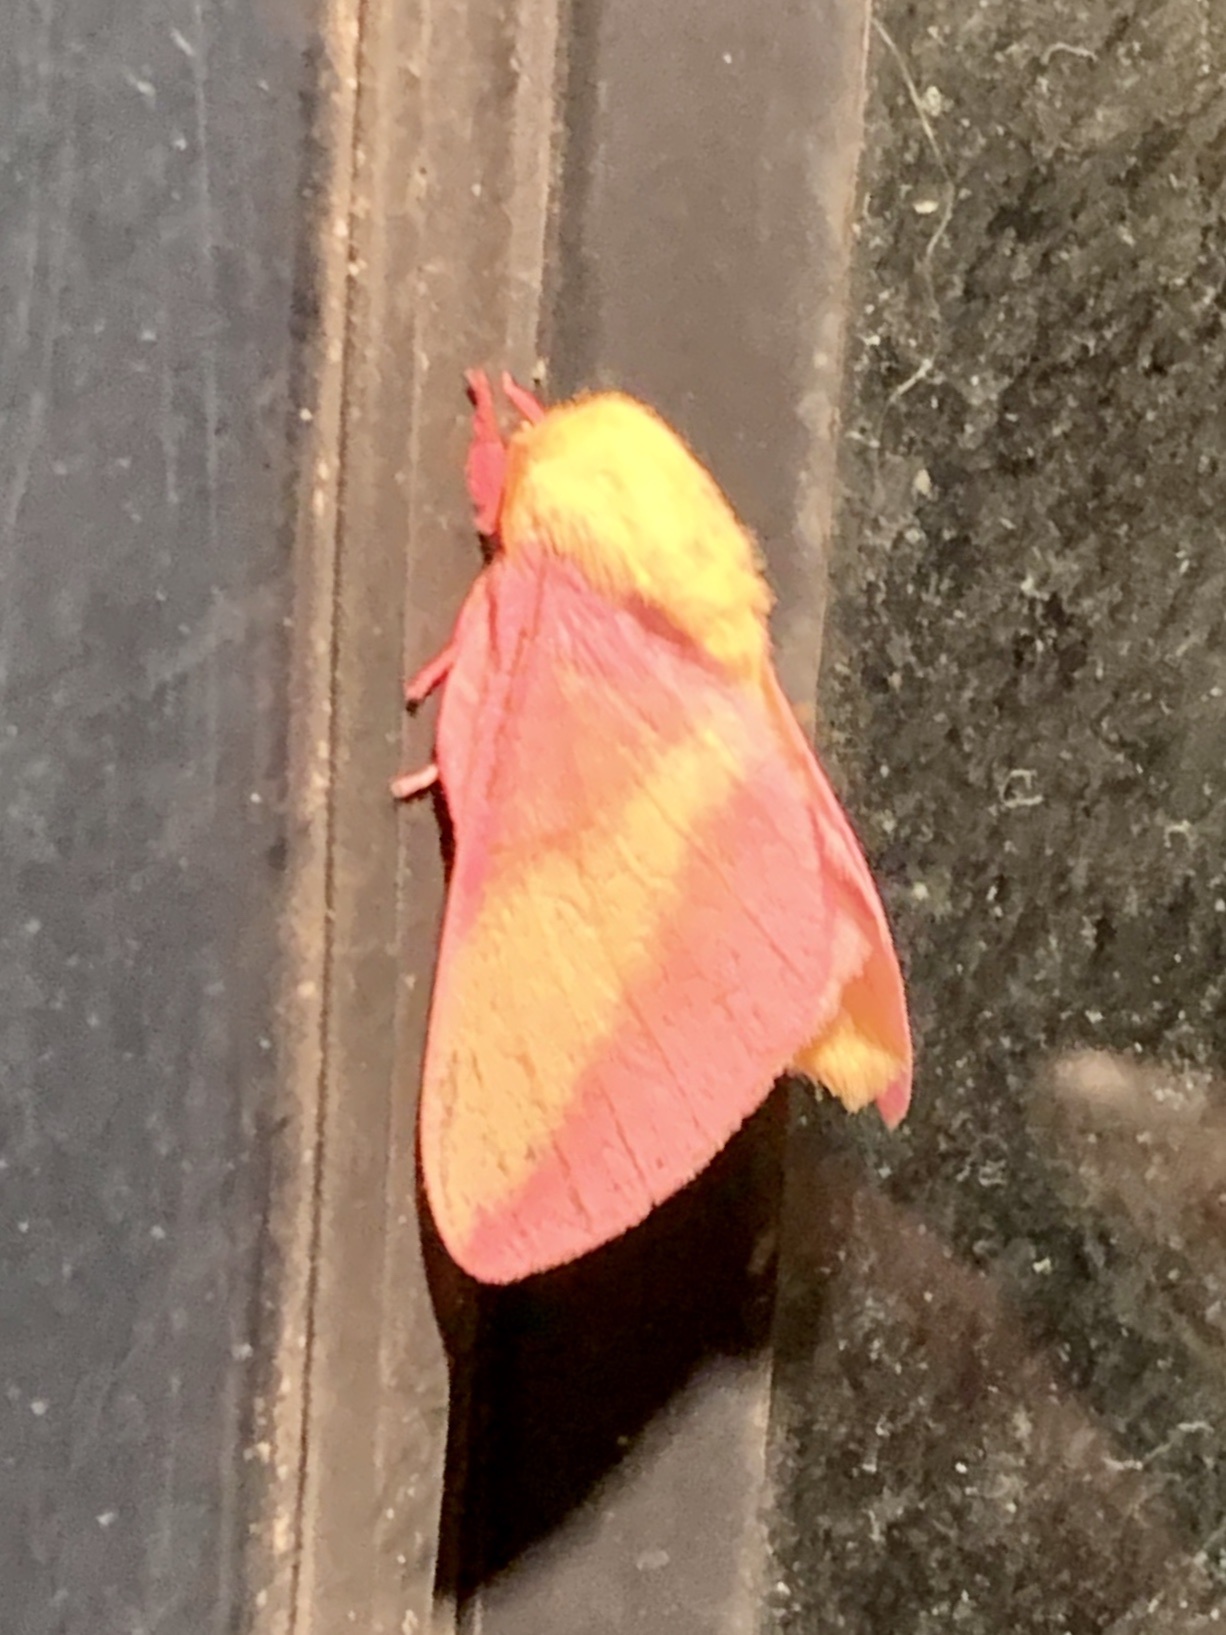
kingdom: Animalia
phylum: Arthropoda
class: Insecta
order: Lepidoptera
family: Saturniidae
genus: Dryocampa
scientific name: Dryocampa rubicunda
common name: Rosy maple moth
